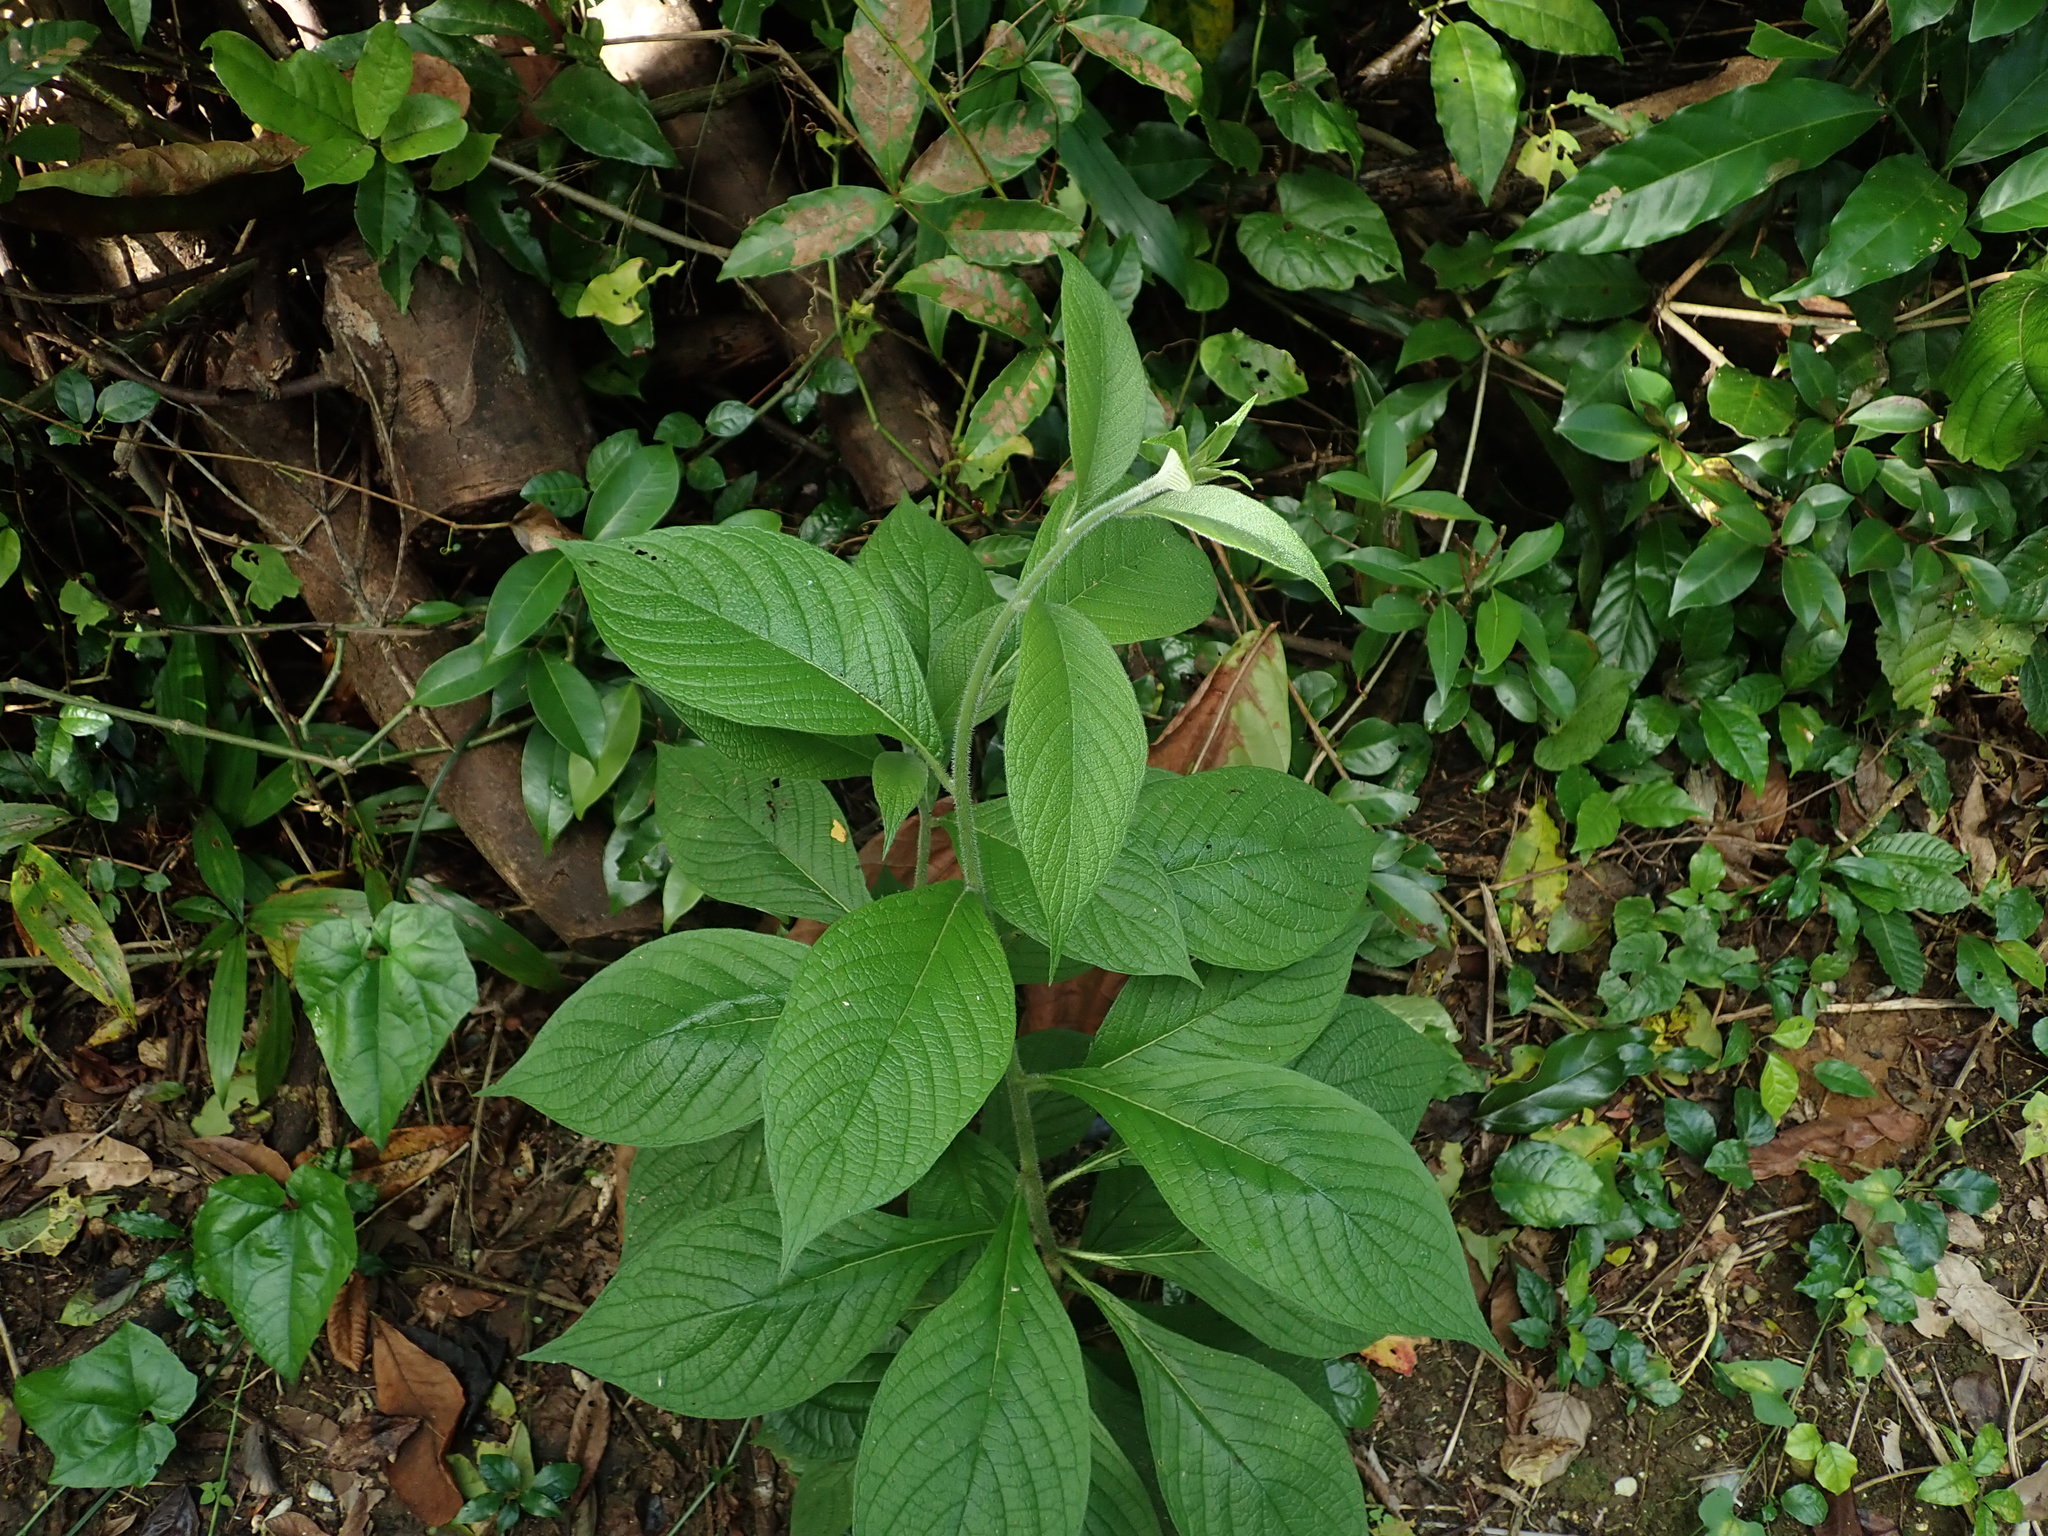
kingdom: Plantae
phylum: Tracheophyta
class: Magnoliopsida
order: Boraginales
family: Heliotropiaceae
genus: Heliotropium
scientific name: Heliotropium verdcourtii
